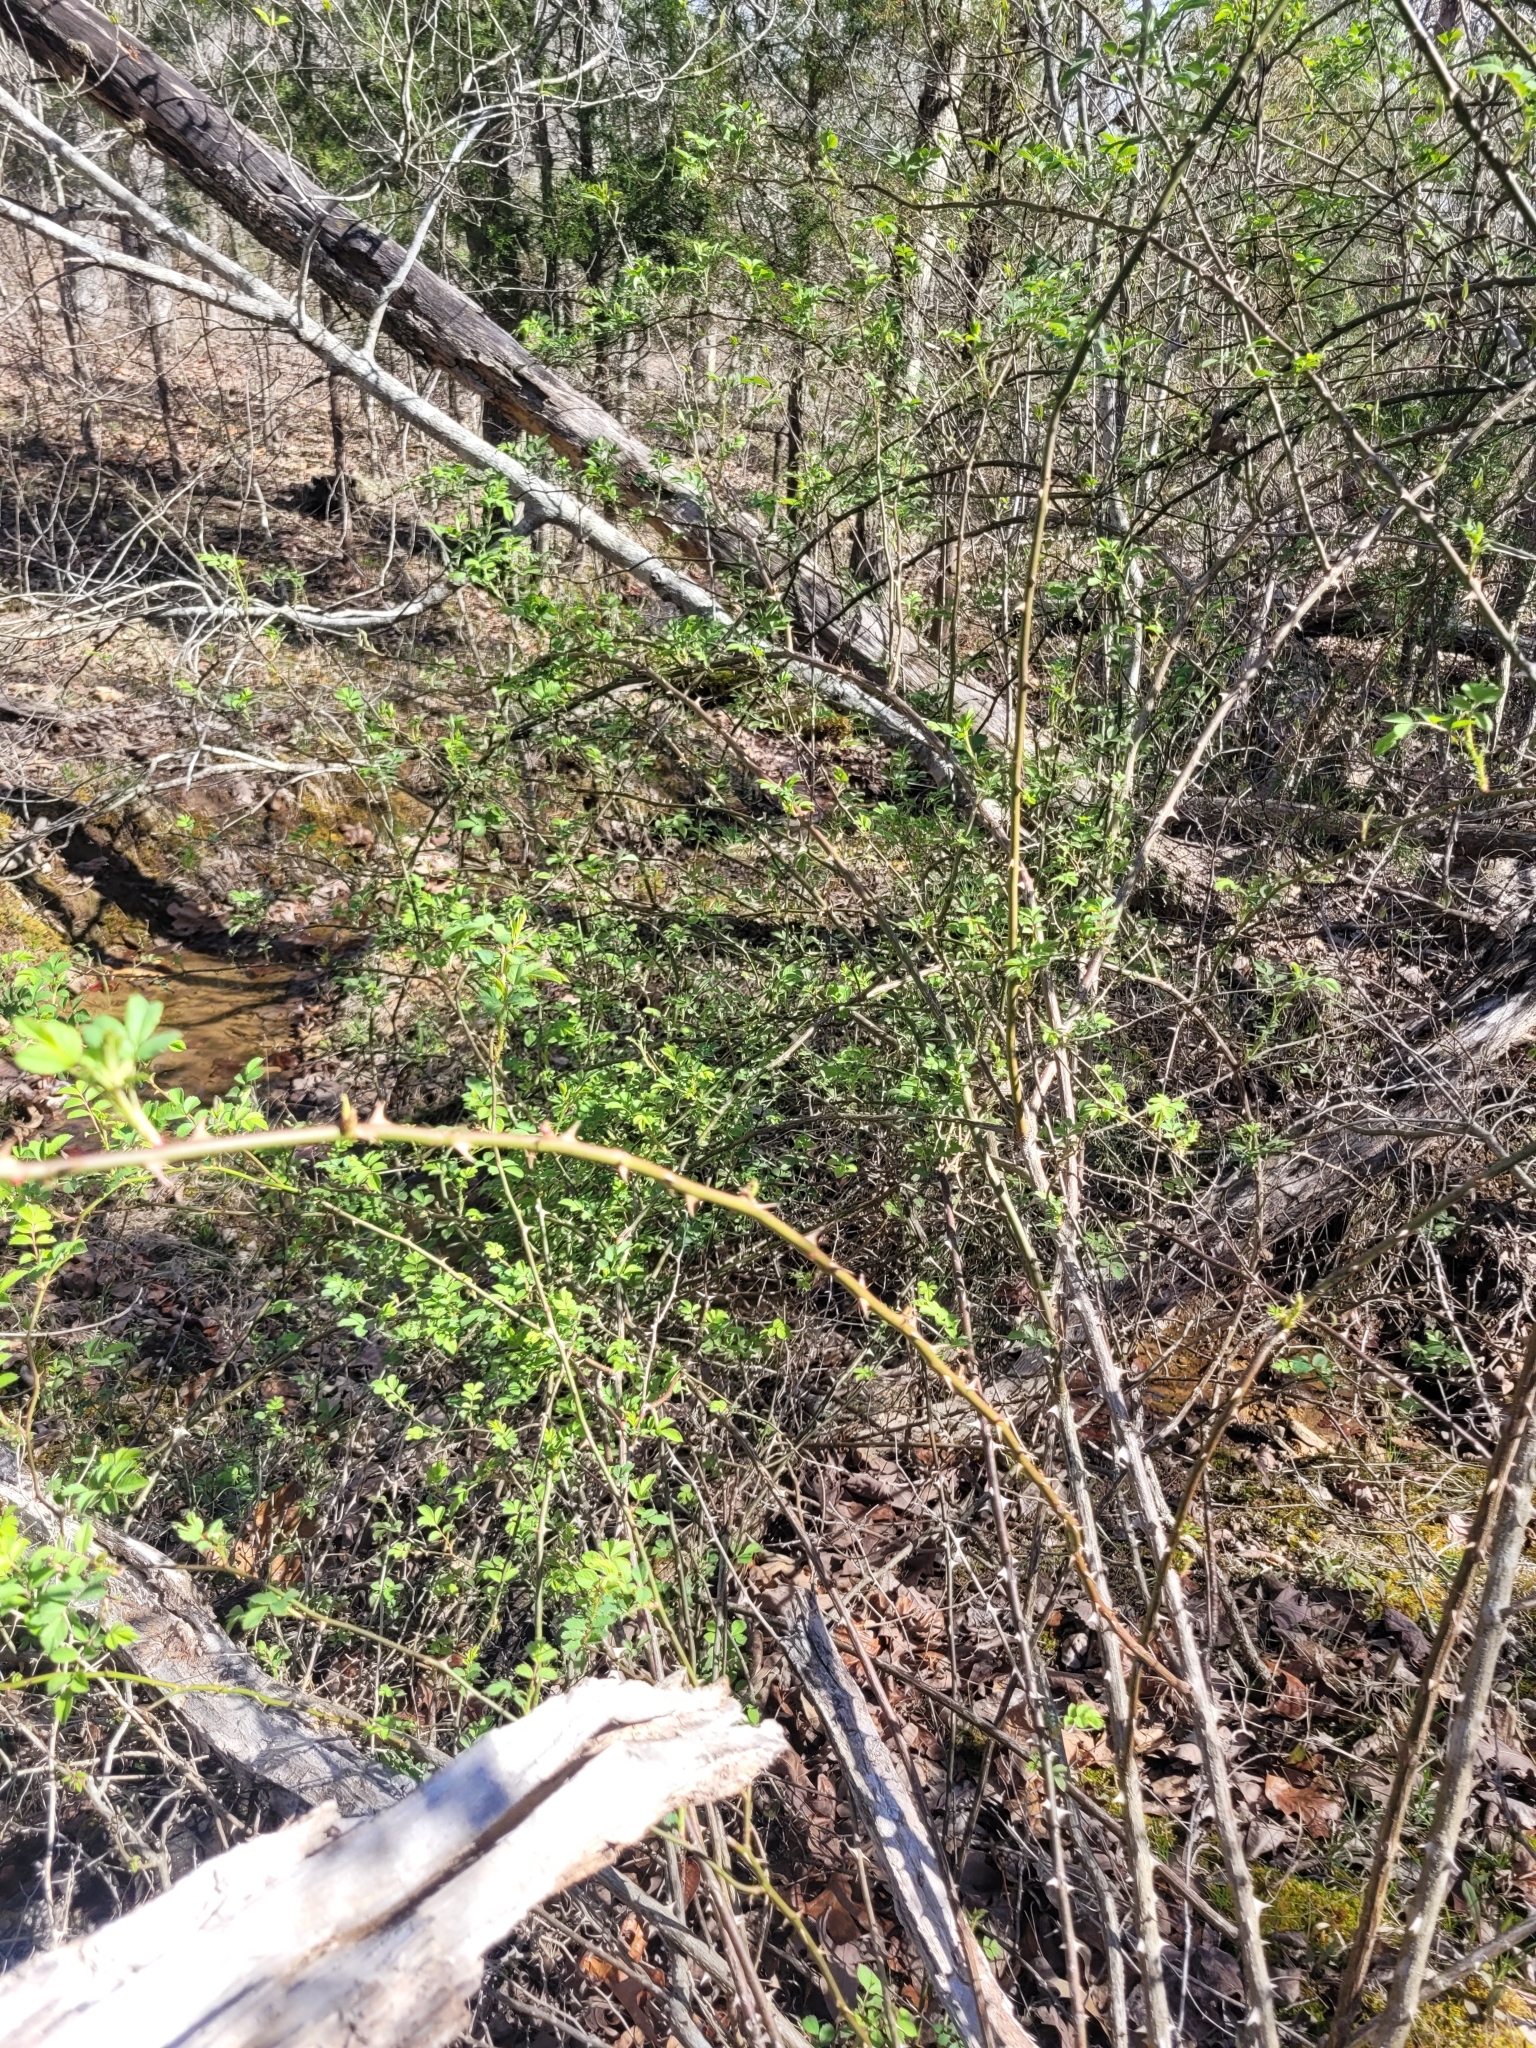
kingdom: Plantae
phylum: Tracheophyta
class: Magnoliopsida
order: Rosales
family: Rosaceae
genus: Rosa
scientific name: Rosa multiflora
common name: Multiflora rose
